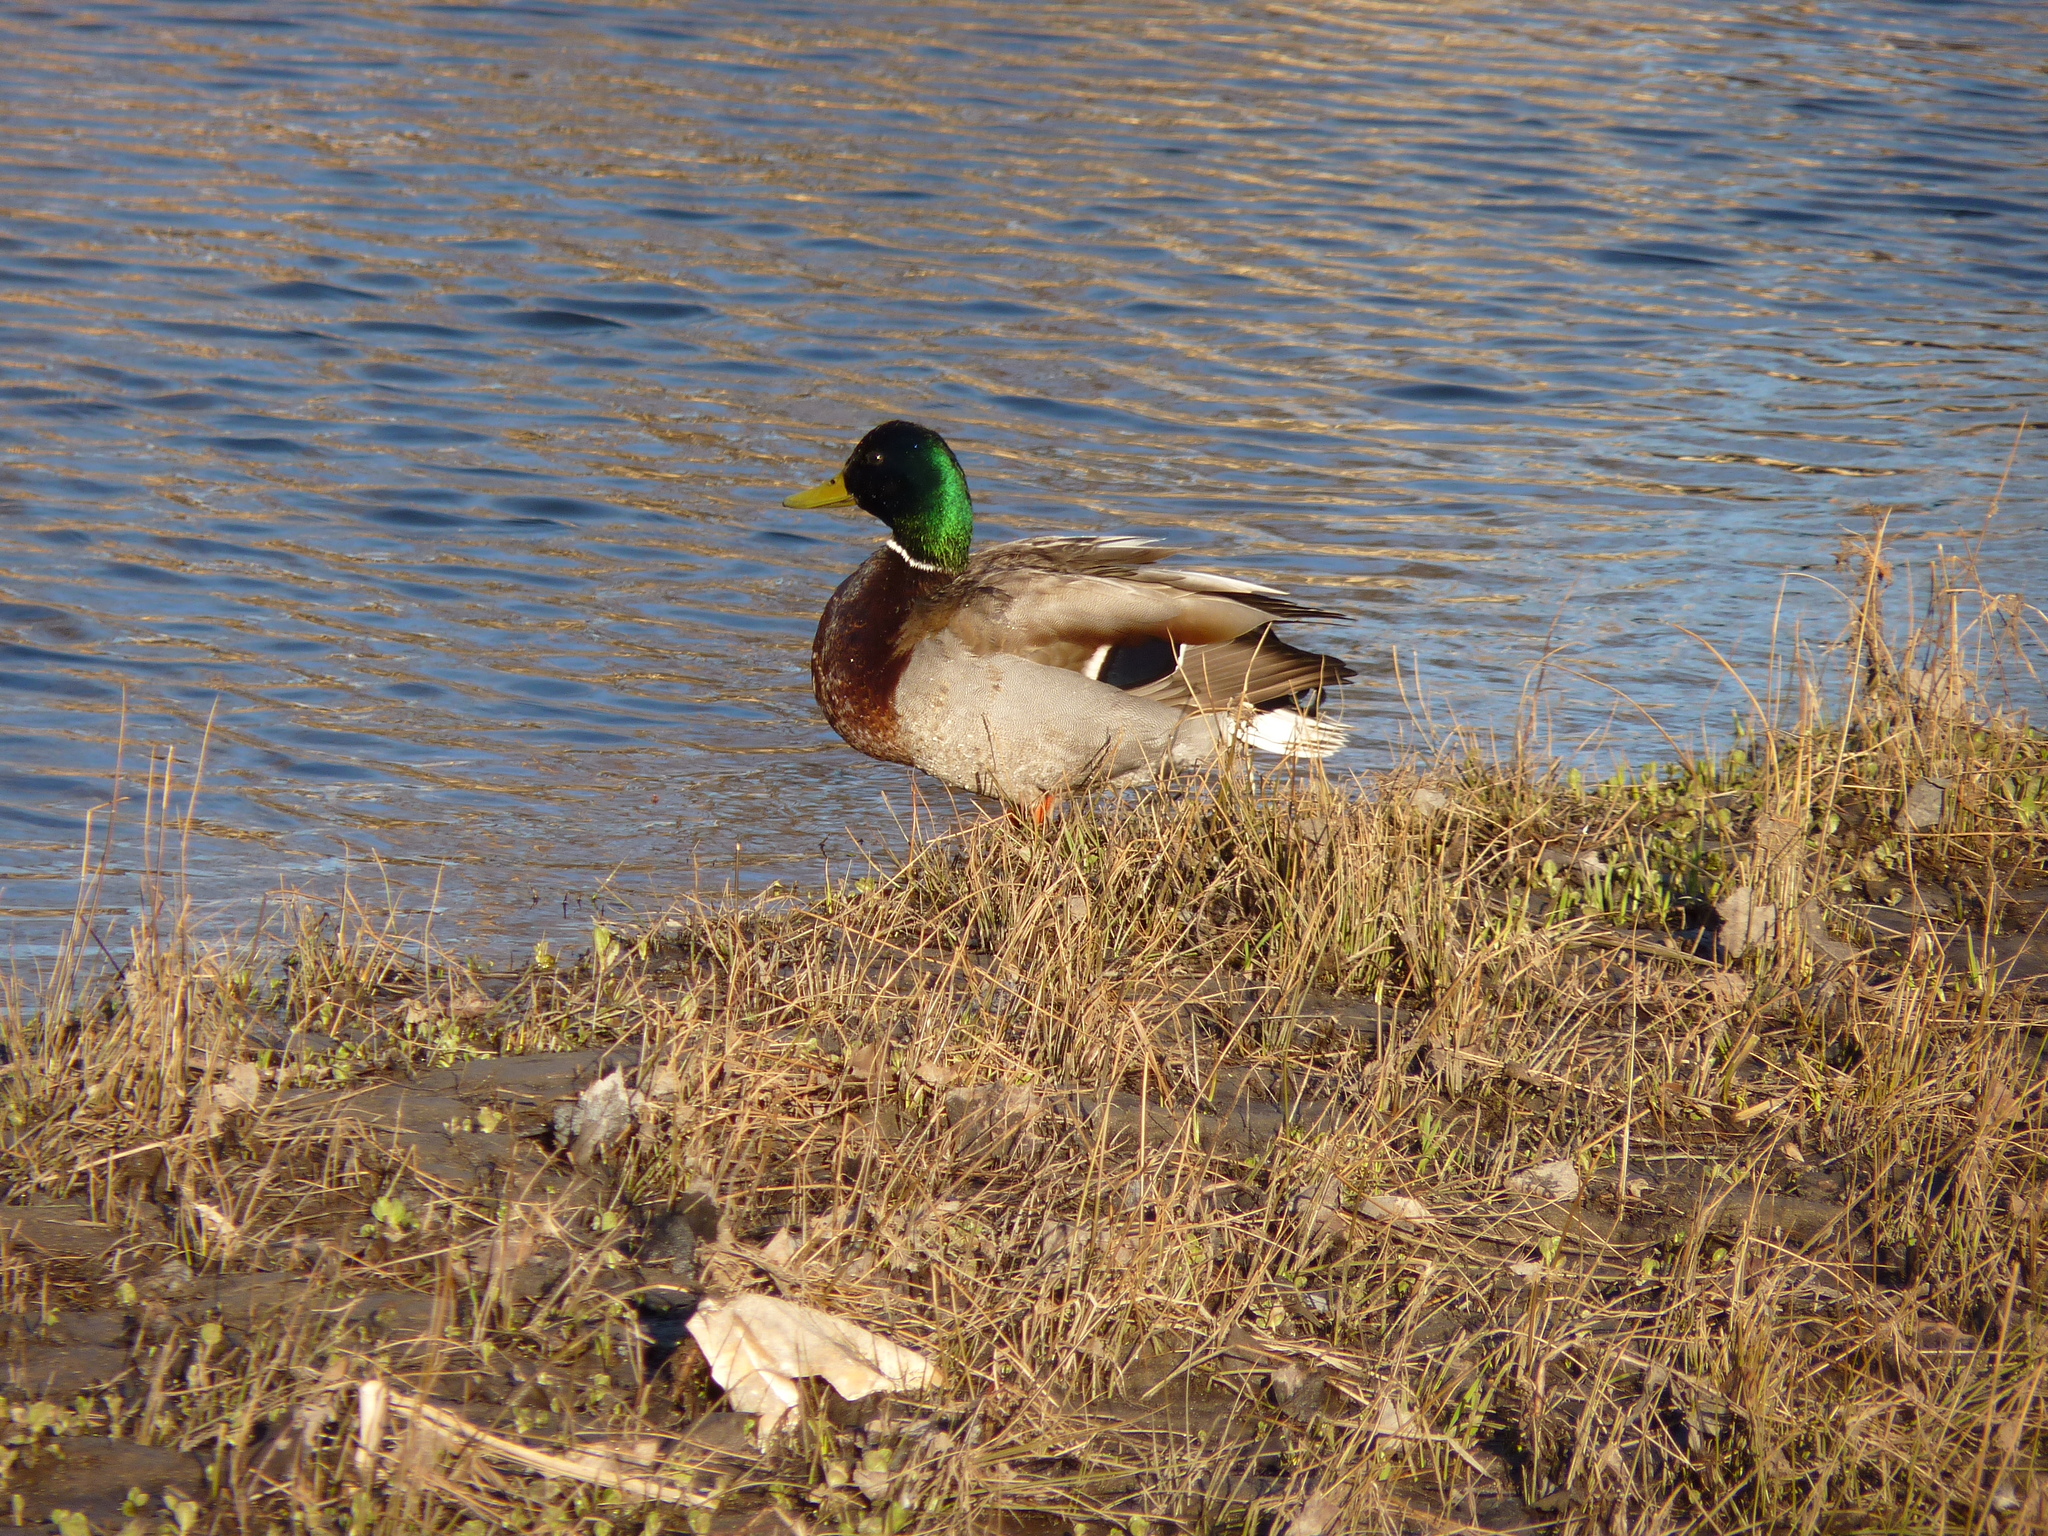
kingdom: Animalia
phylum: Chordata
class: Aves
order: Anseriformes
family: Anatidae
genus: Anas
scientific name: Anas platyrhynchos
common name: Mallard
